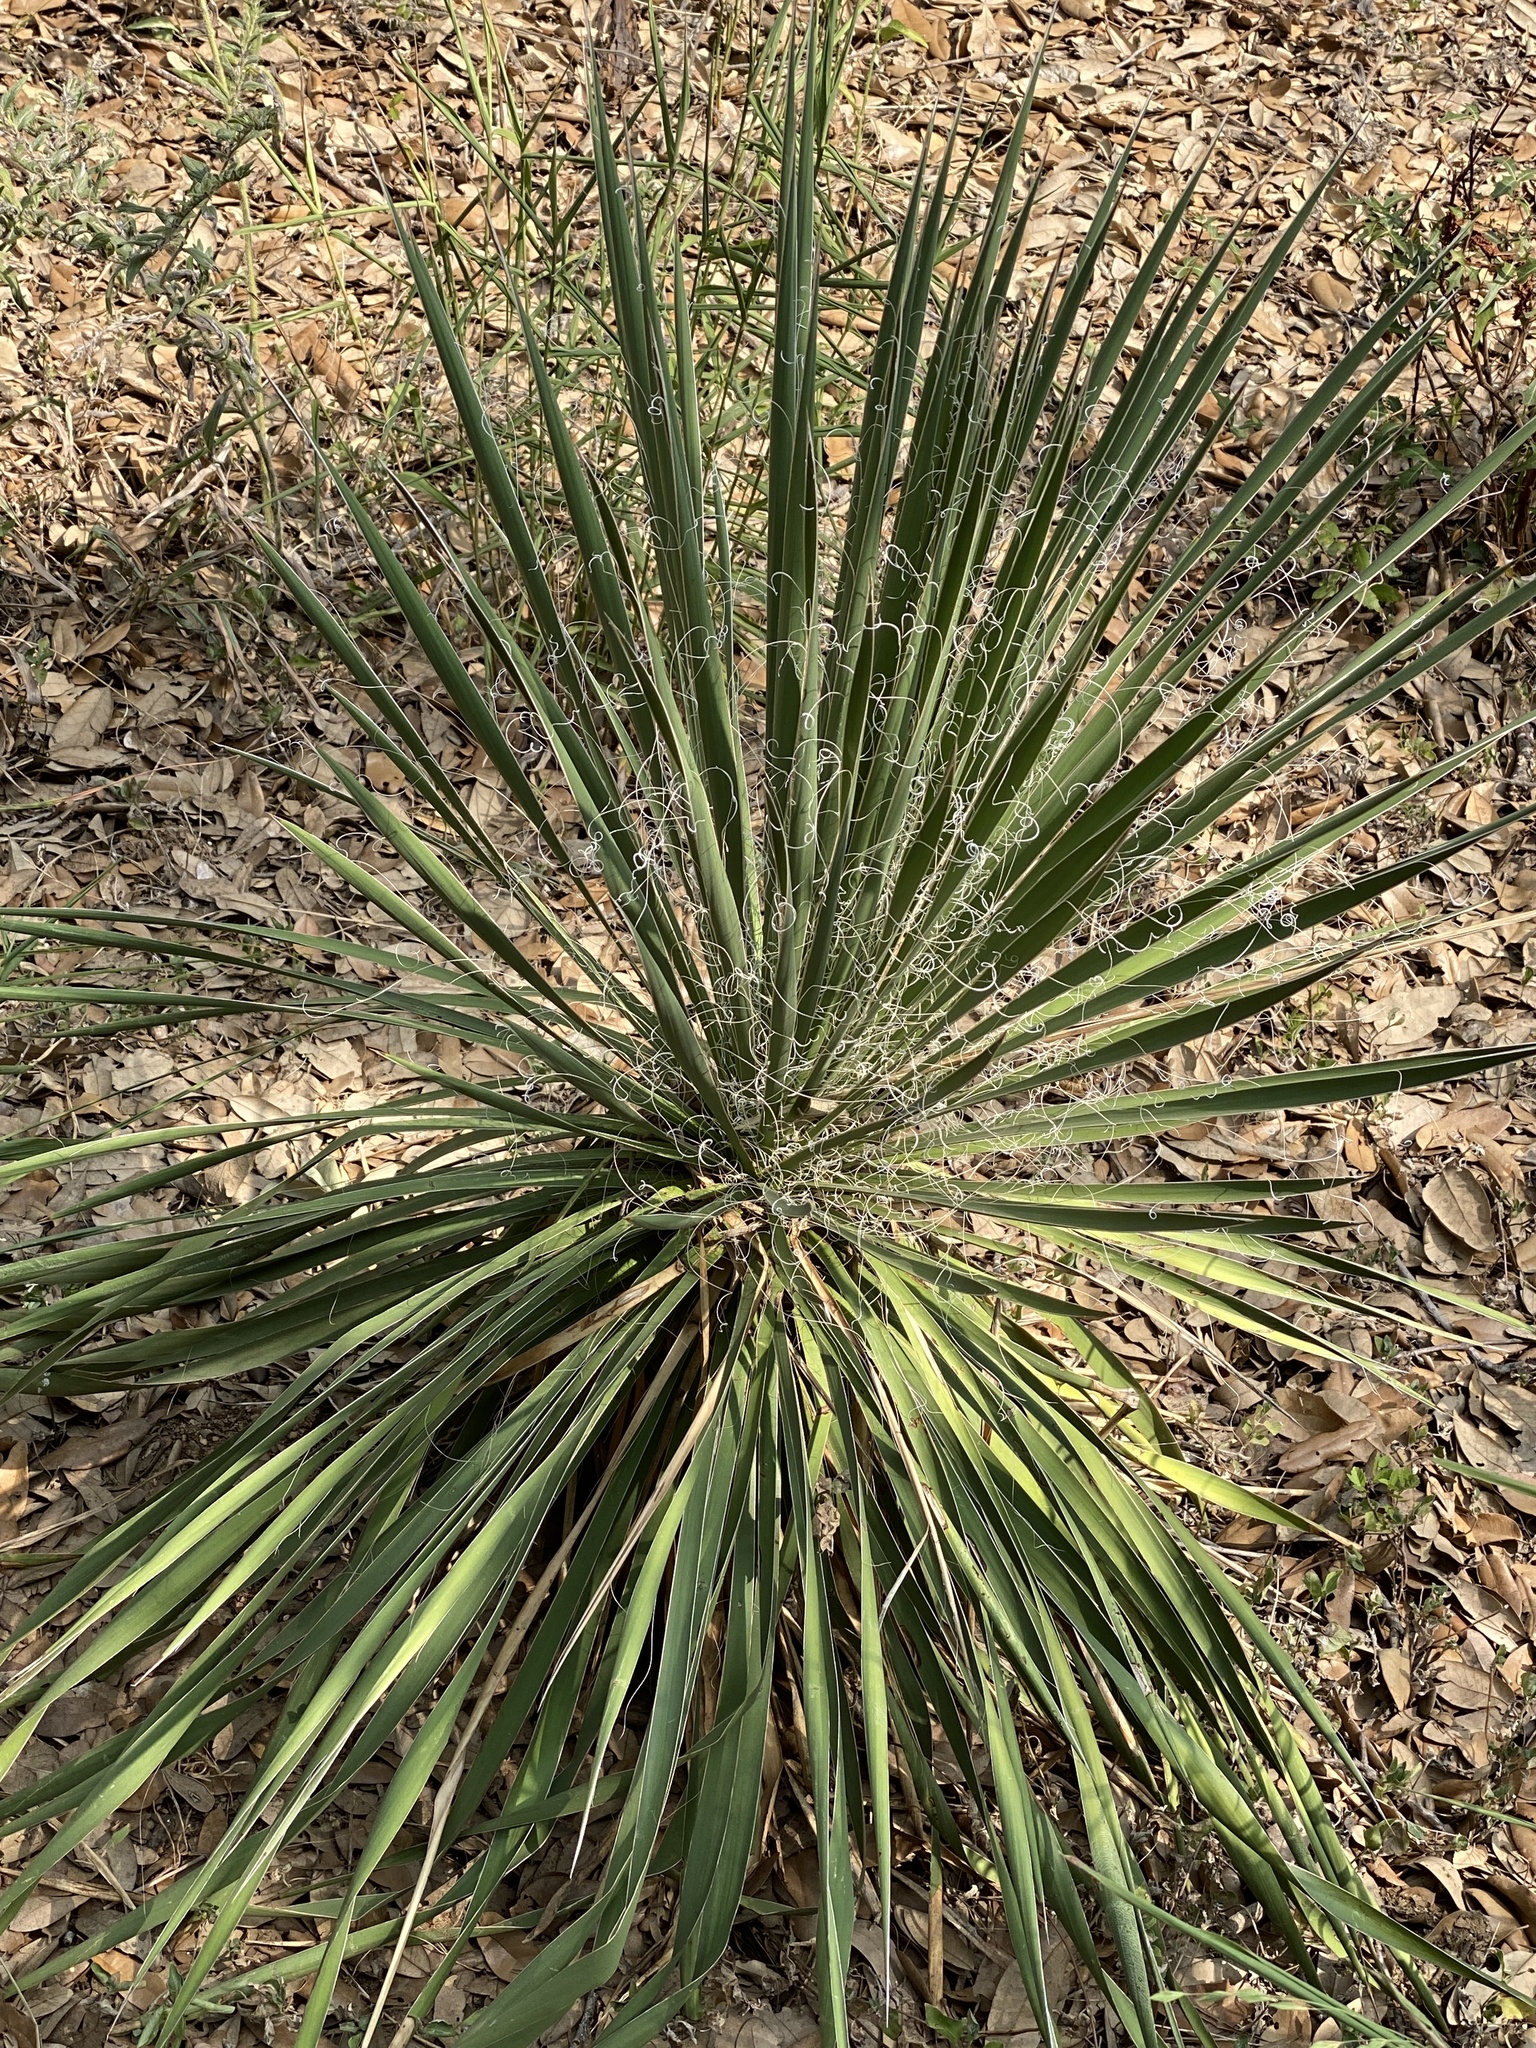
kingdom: Plantae
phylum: Tracheophyta
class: Liliopsida
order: Asparagales
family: Asparagaceae
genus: Yucca
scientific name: Yucca constricta
